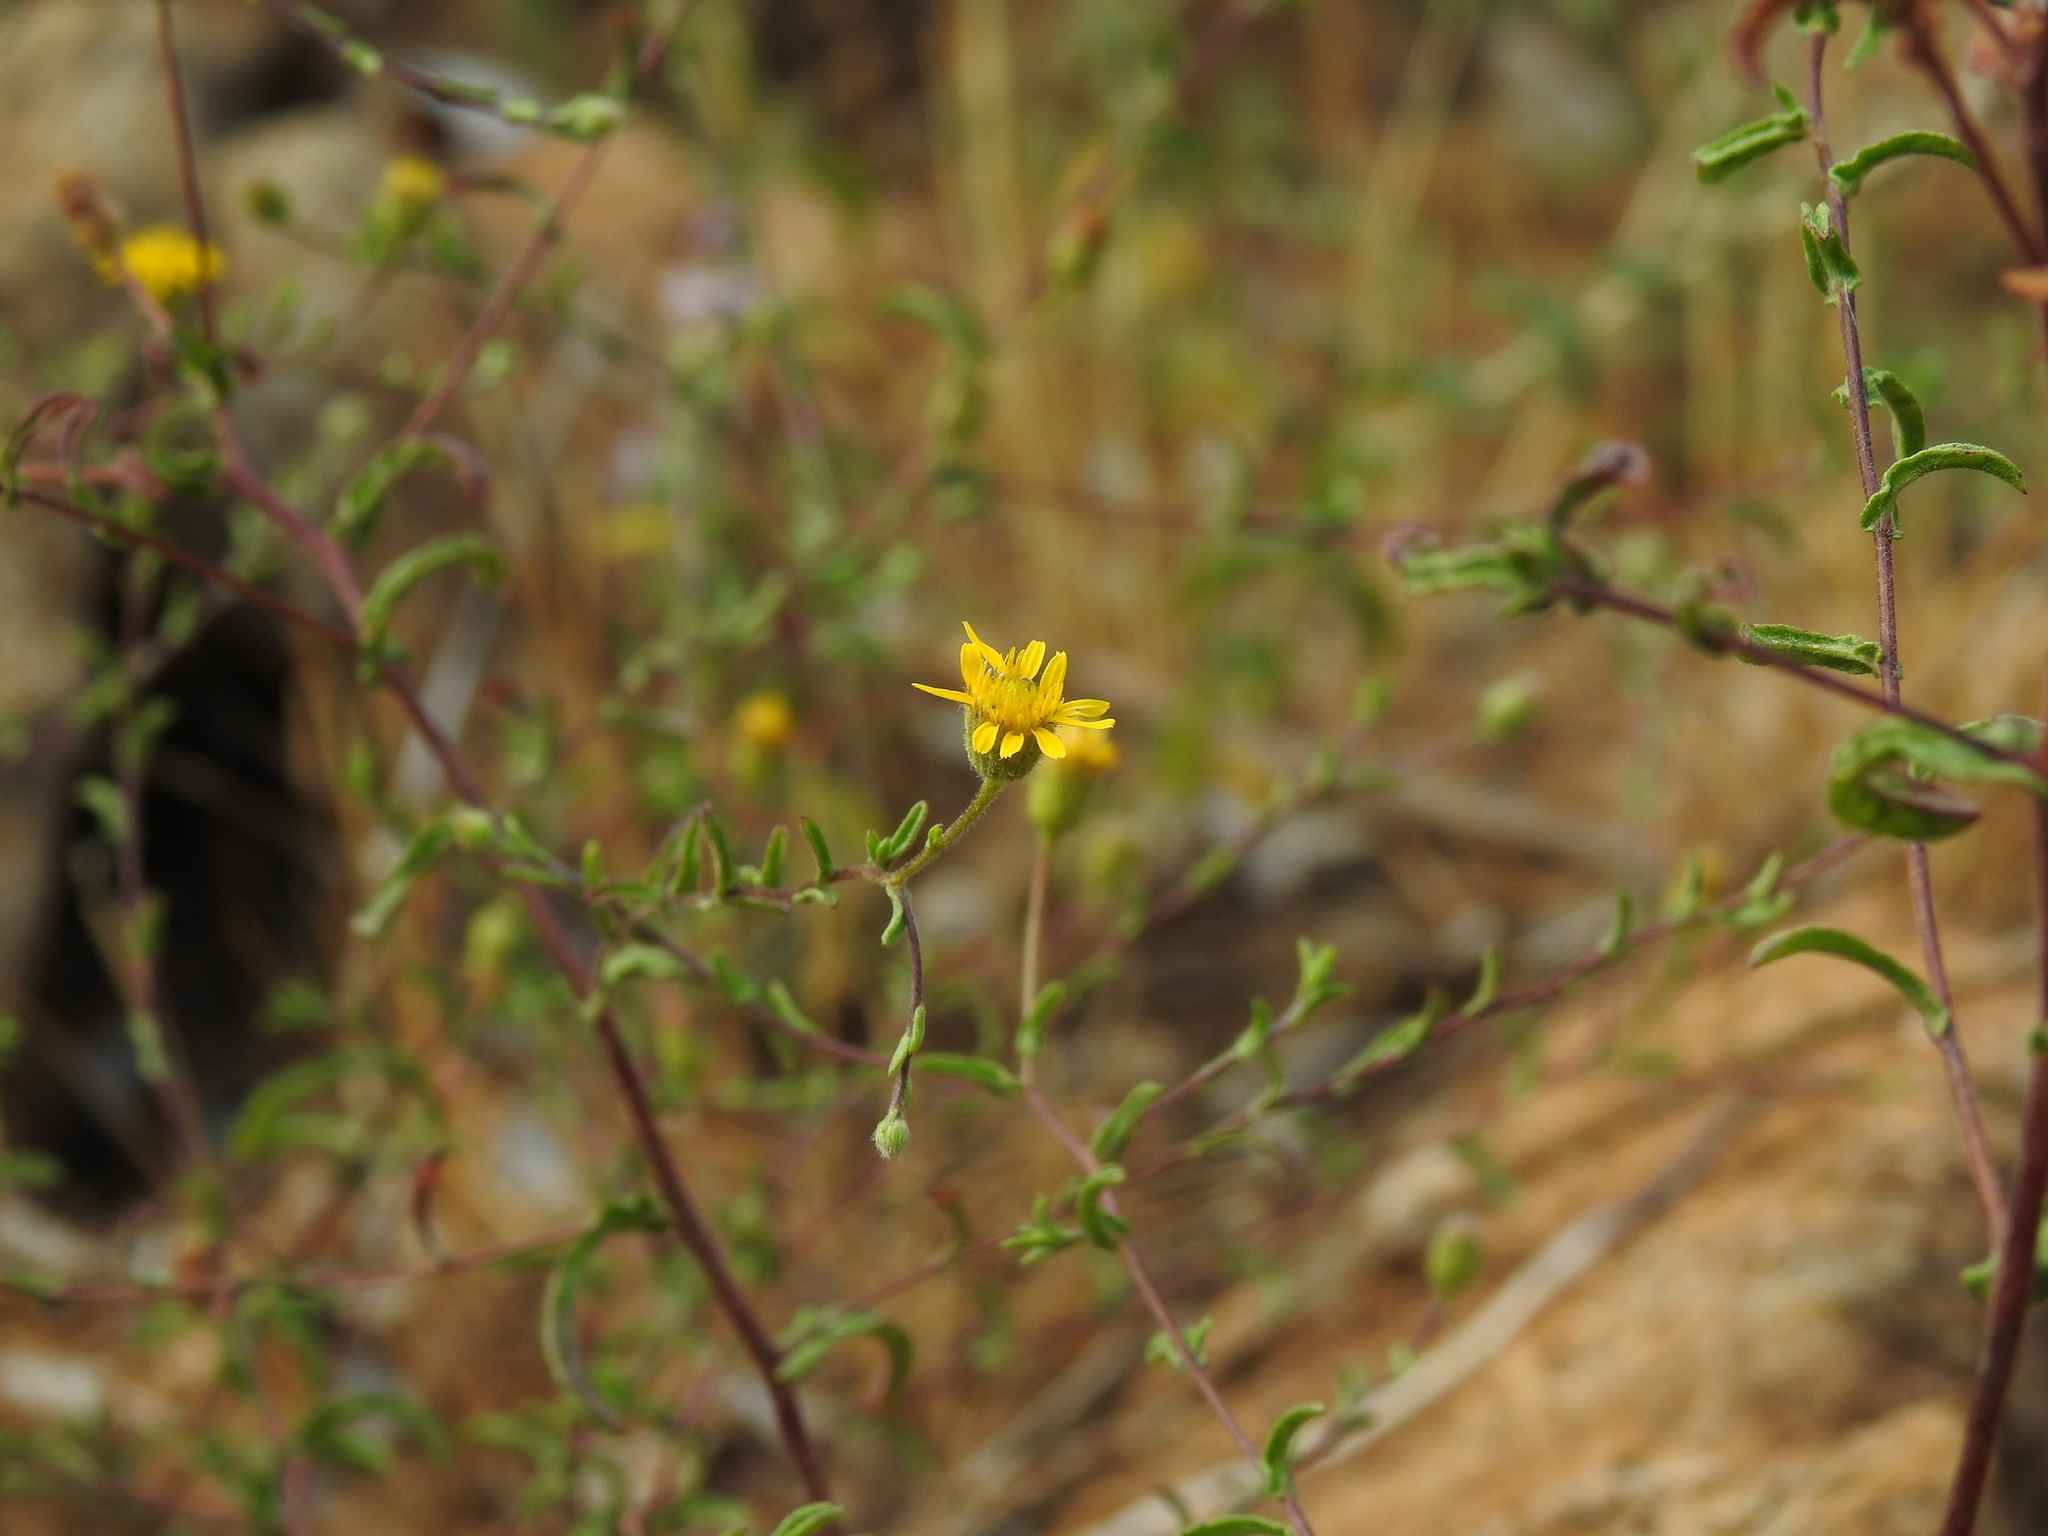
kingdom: Plantae
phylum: Tracheophyta
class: Magnoliopsida
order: Asterales
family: Asteraceae
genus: Pulicaria
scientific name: Pulicaria paludosa
